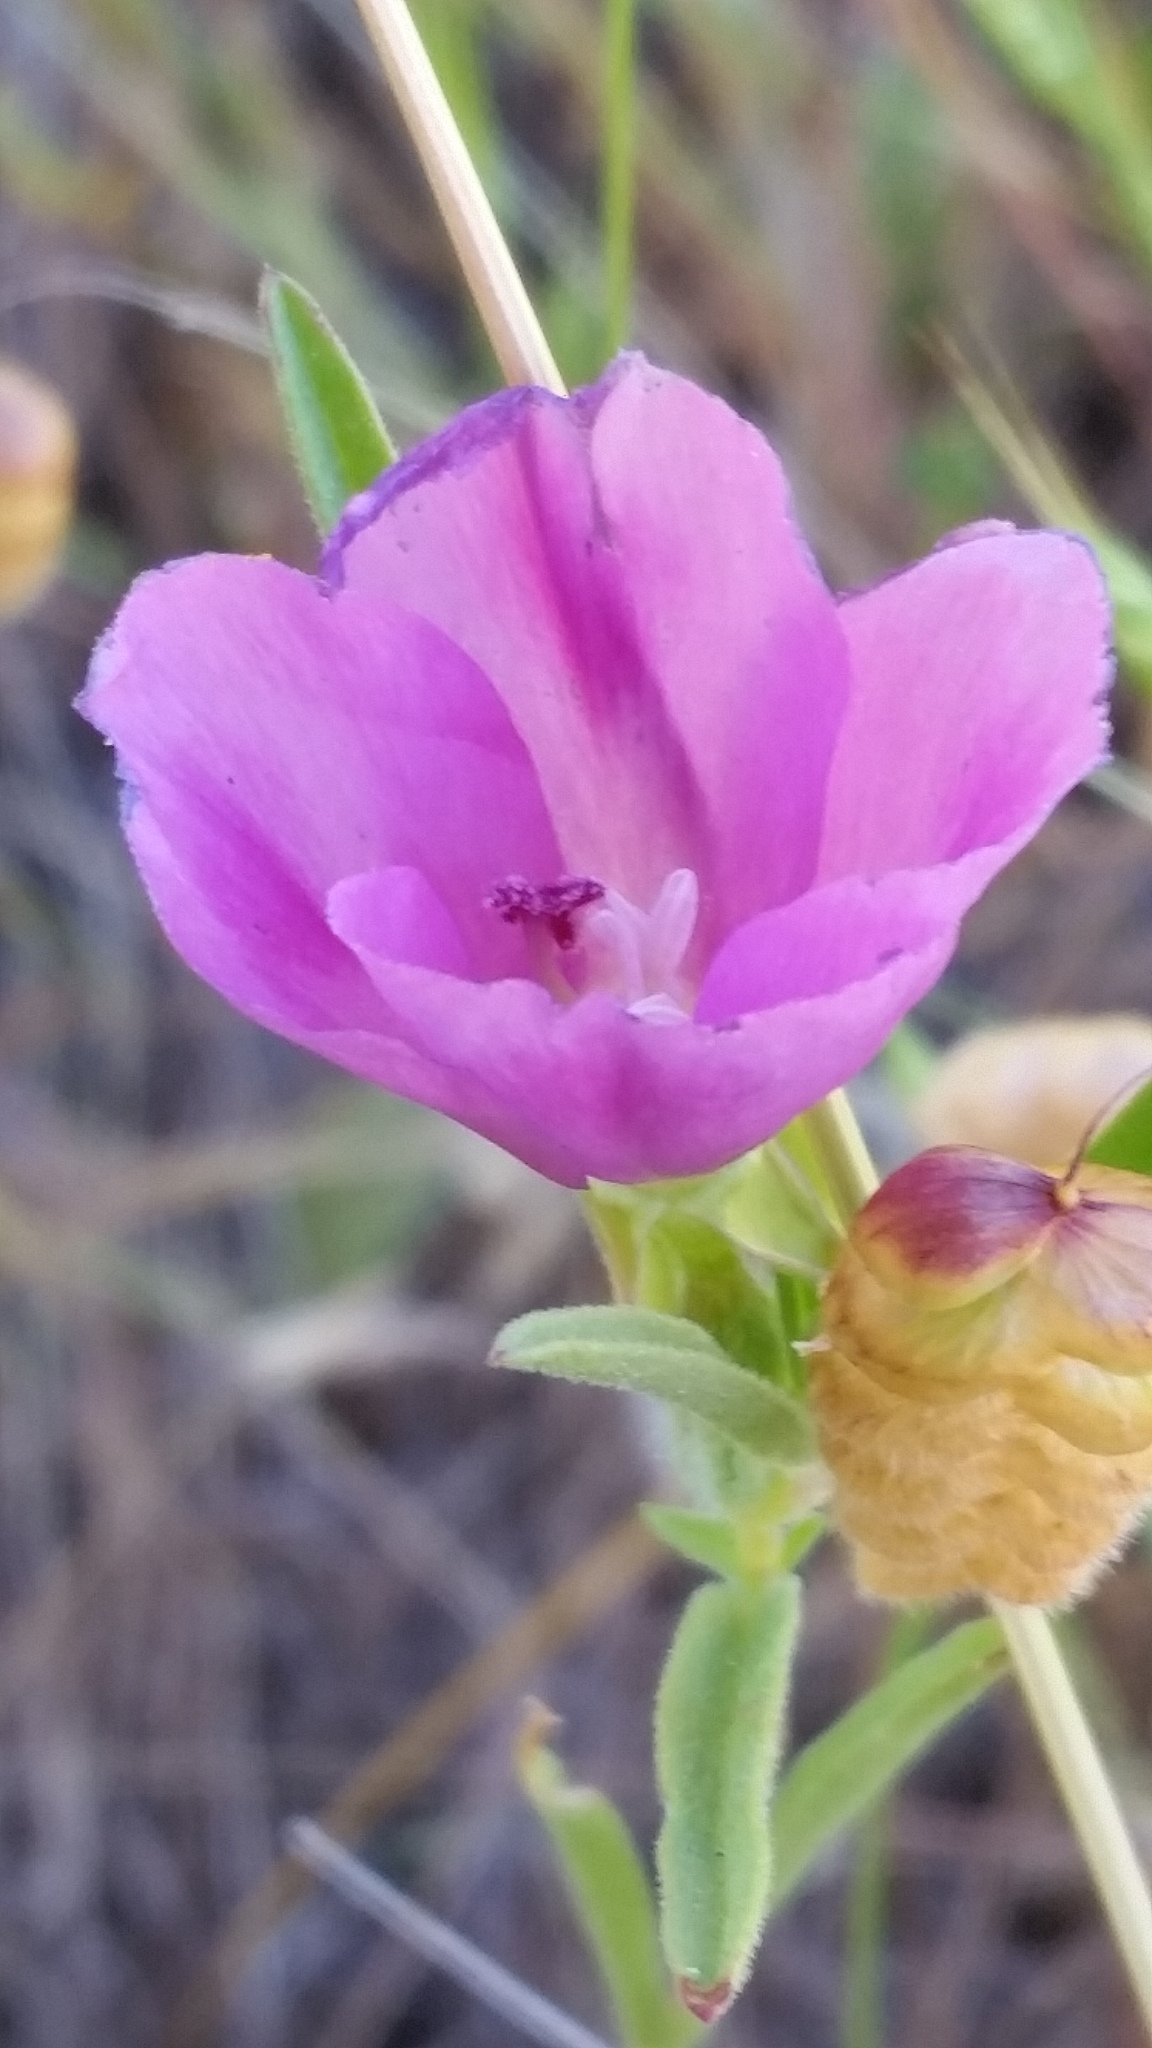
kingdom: Plantae
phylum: Tracheophyta
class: Magnoliopsida
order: Myrtales
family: Onagraceae
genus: Clarkia
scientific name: Clarkia gracilis
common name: Graceful clarkia
